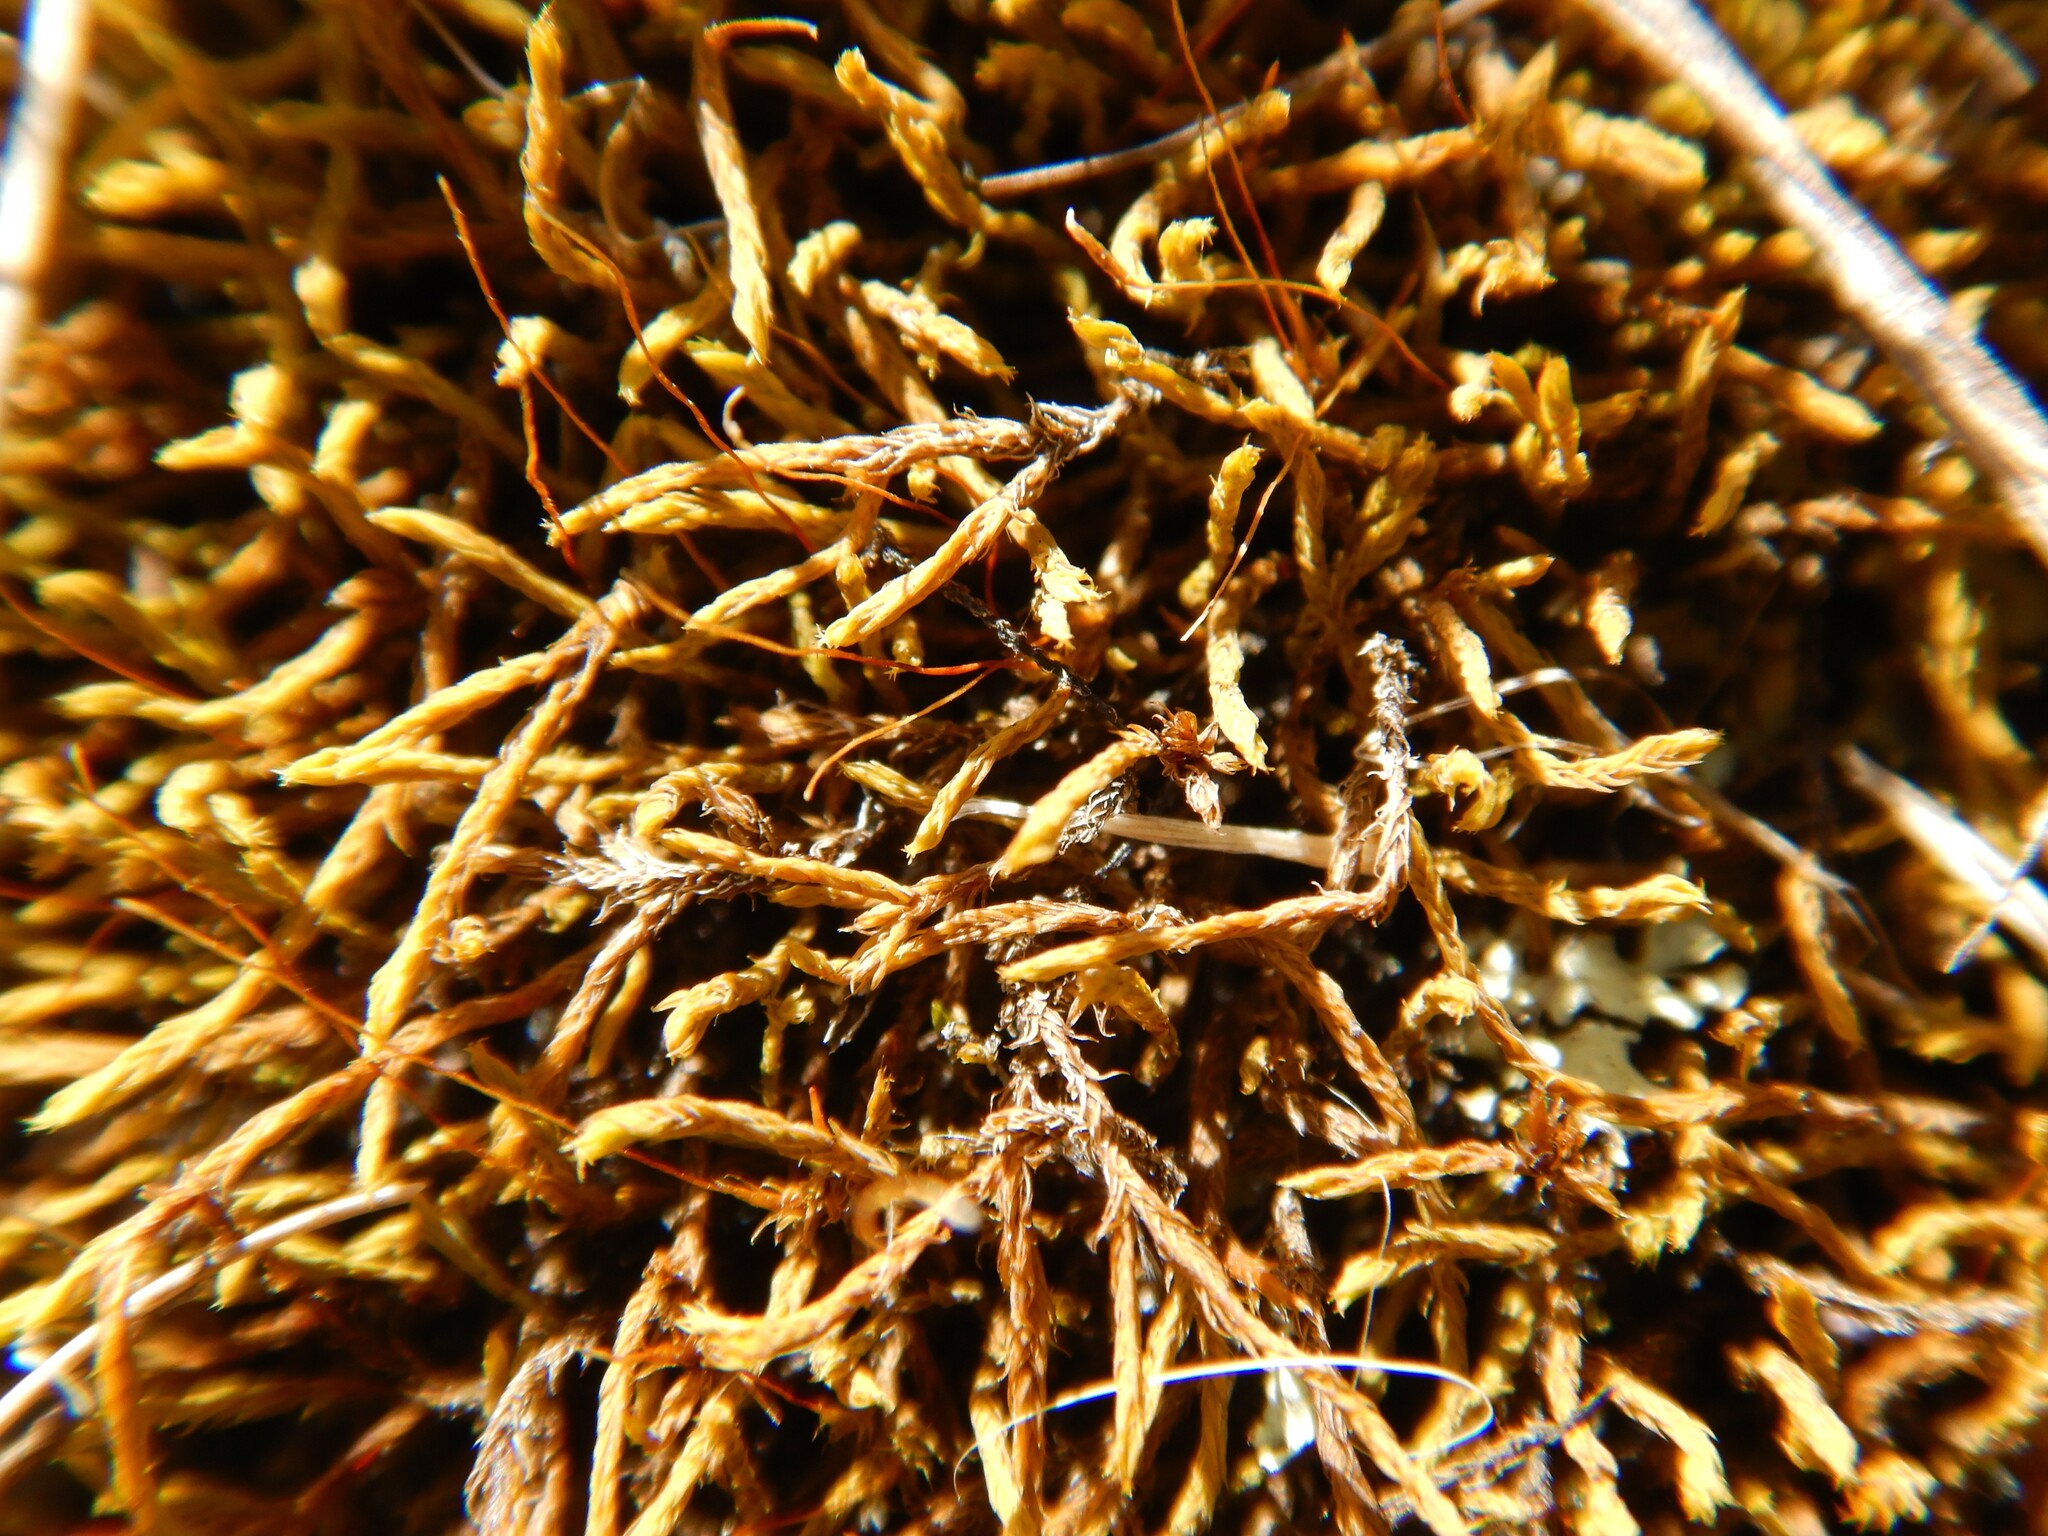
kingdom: Plantae
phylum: Bryophyta
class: Bryopsida
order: Pottiales
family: Pottiaceae
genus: Triquetrella
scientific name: Triquetrella papillata
